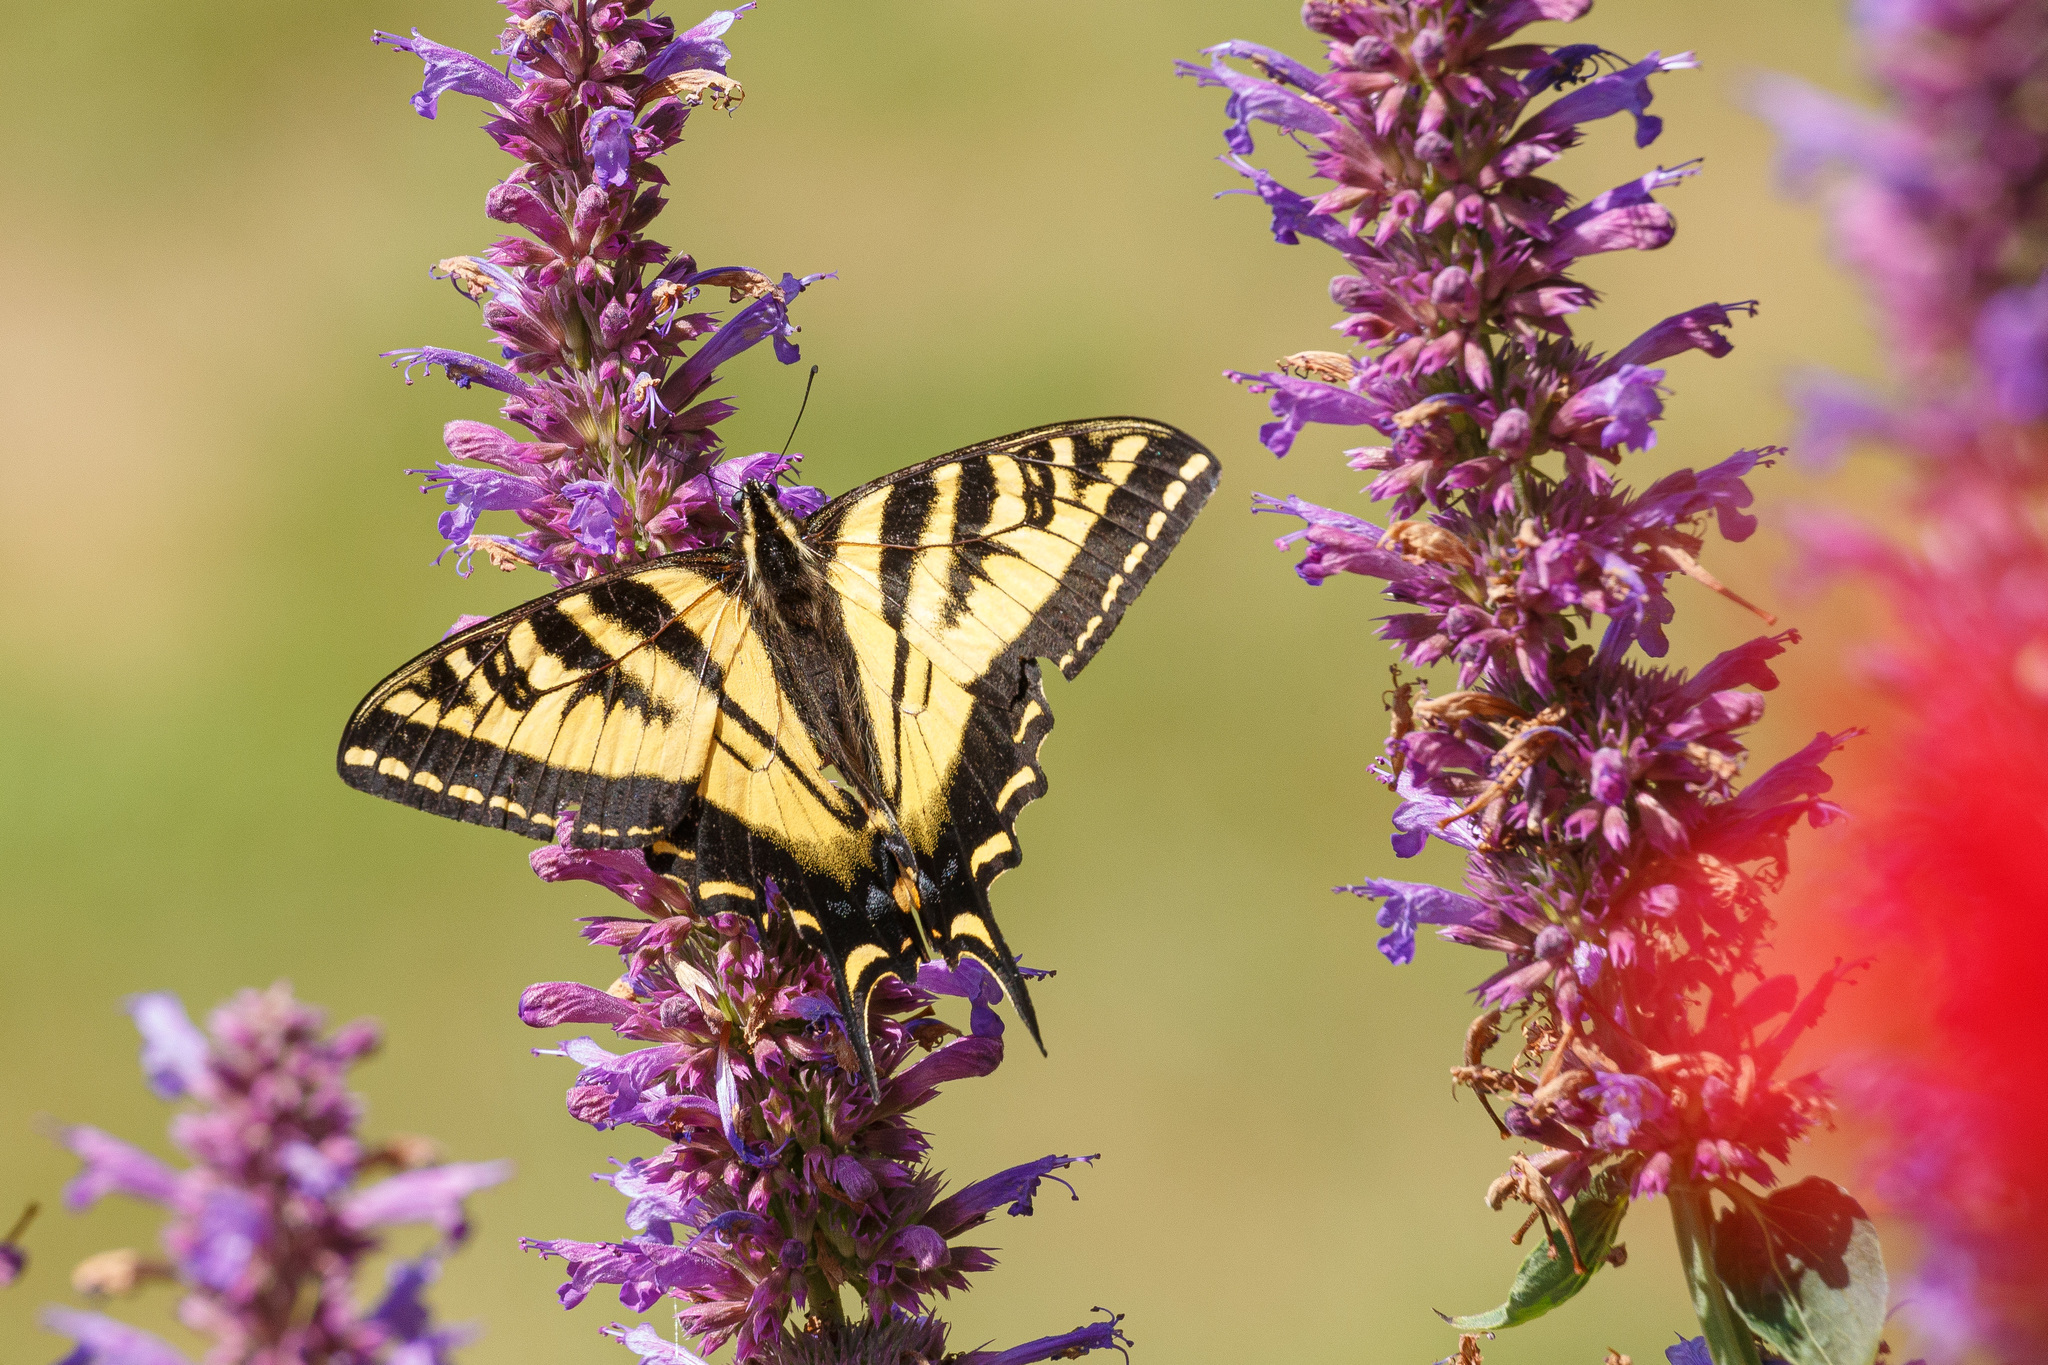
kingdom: Animalia
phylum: Arthropoda
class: Insecta
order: Lepidoptera
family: Papilionidae
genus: Papilio
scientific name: Papilio rutulus
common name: Western tiger swallowtail
